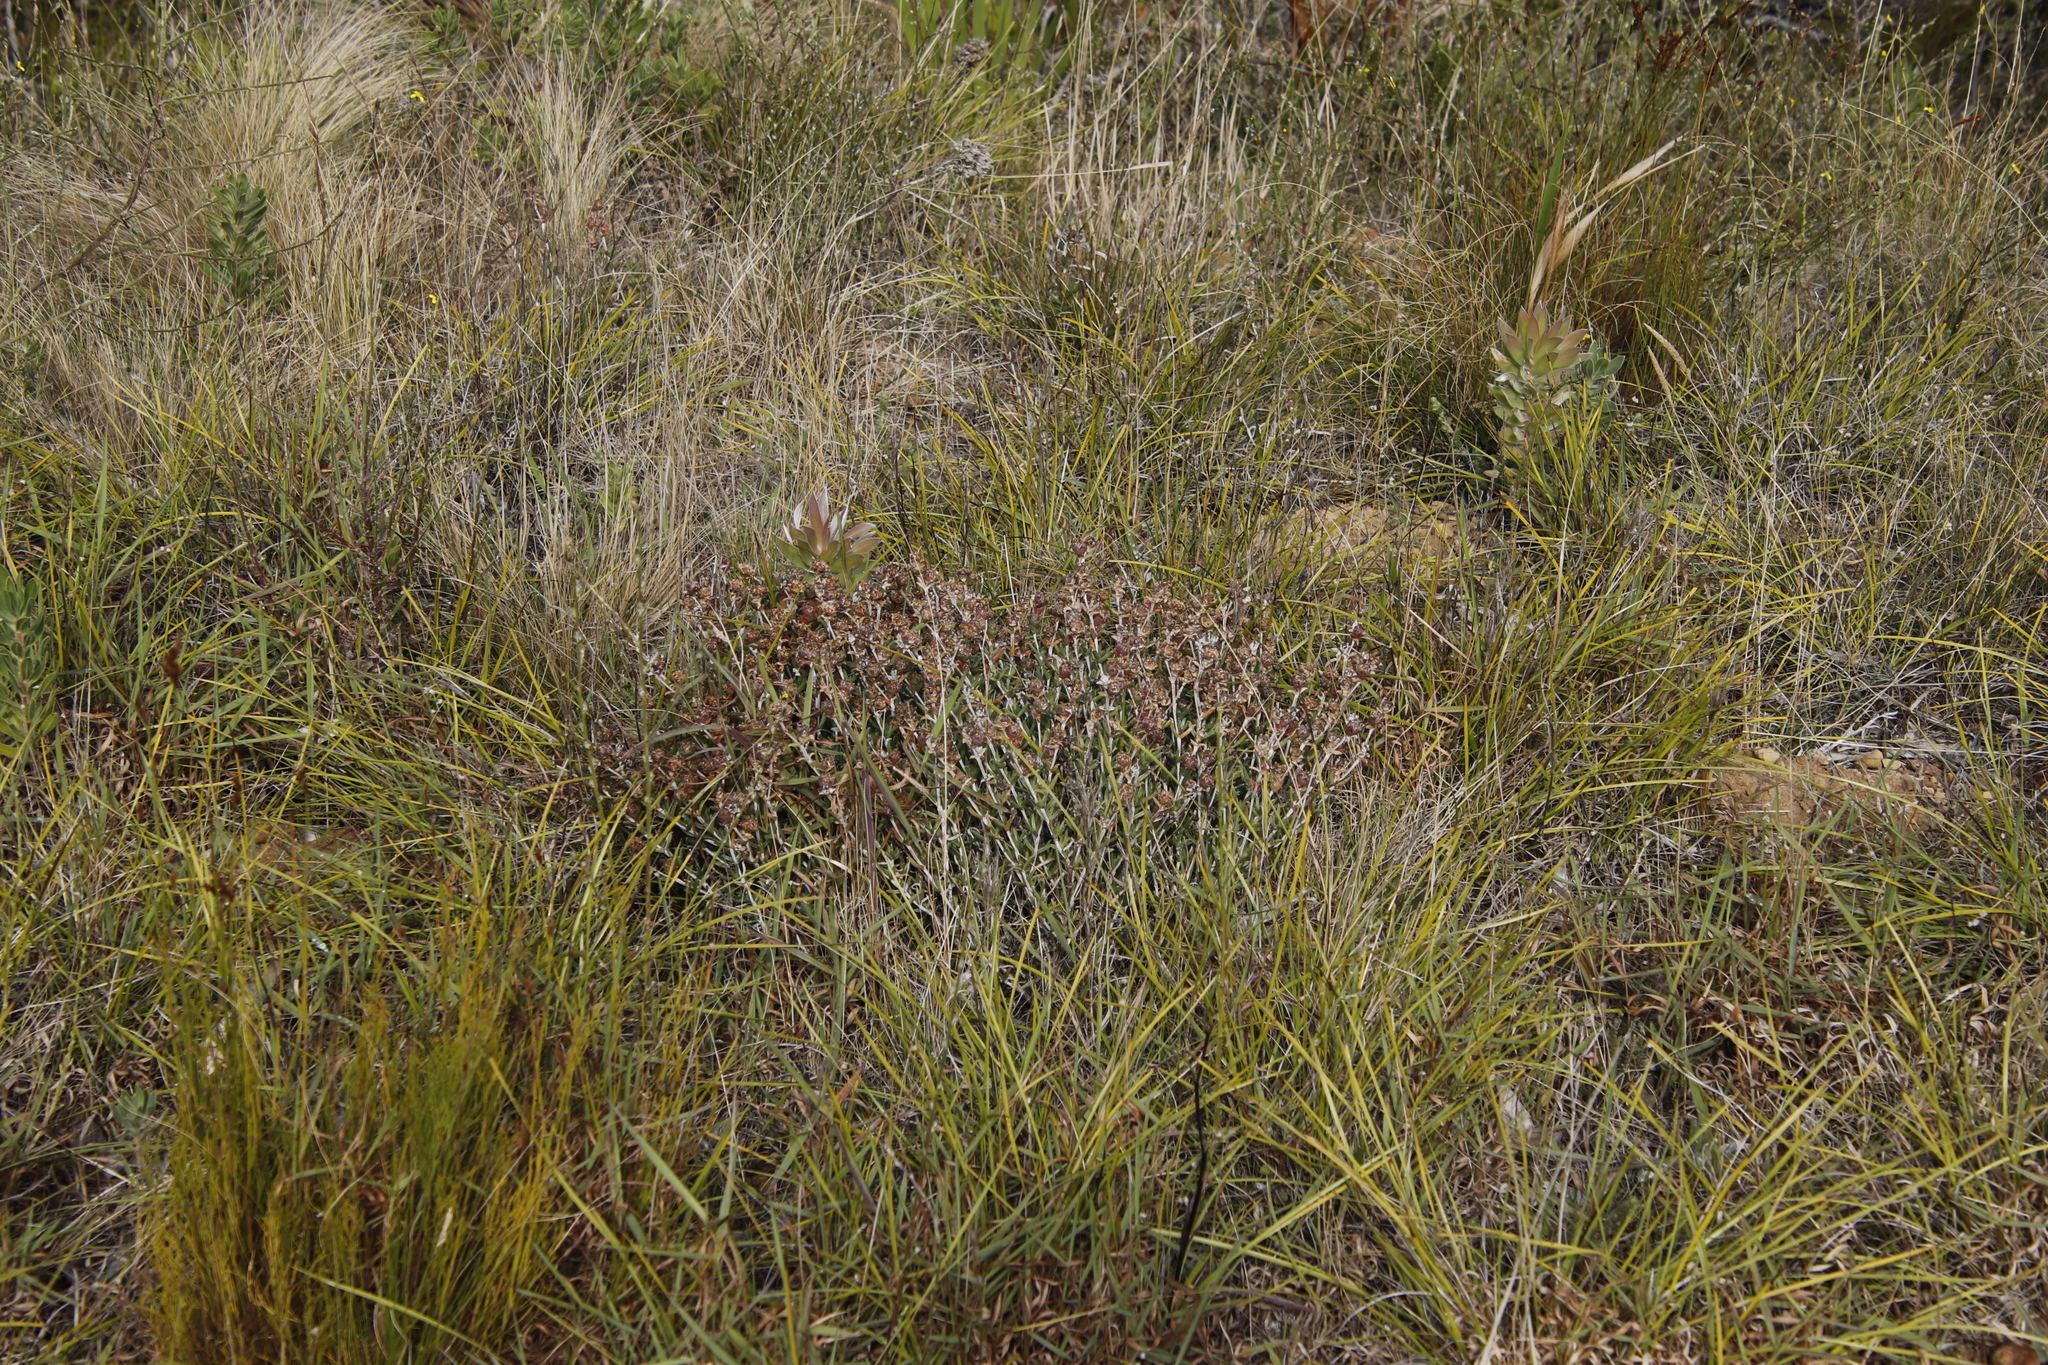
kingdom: Plantae
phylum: Tracheophyta
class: Magnoliopsida
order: Caryophyllales
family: Aizoaceae
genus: Erepsia
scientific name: Erepsia bracteata
